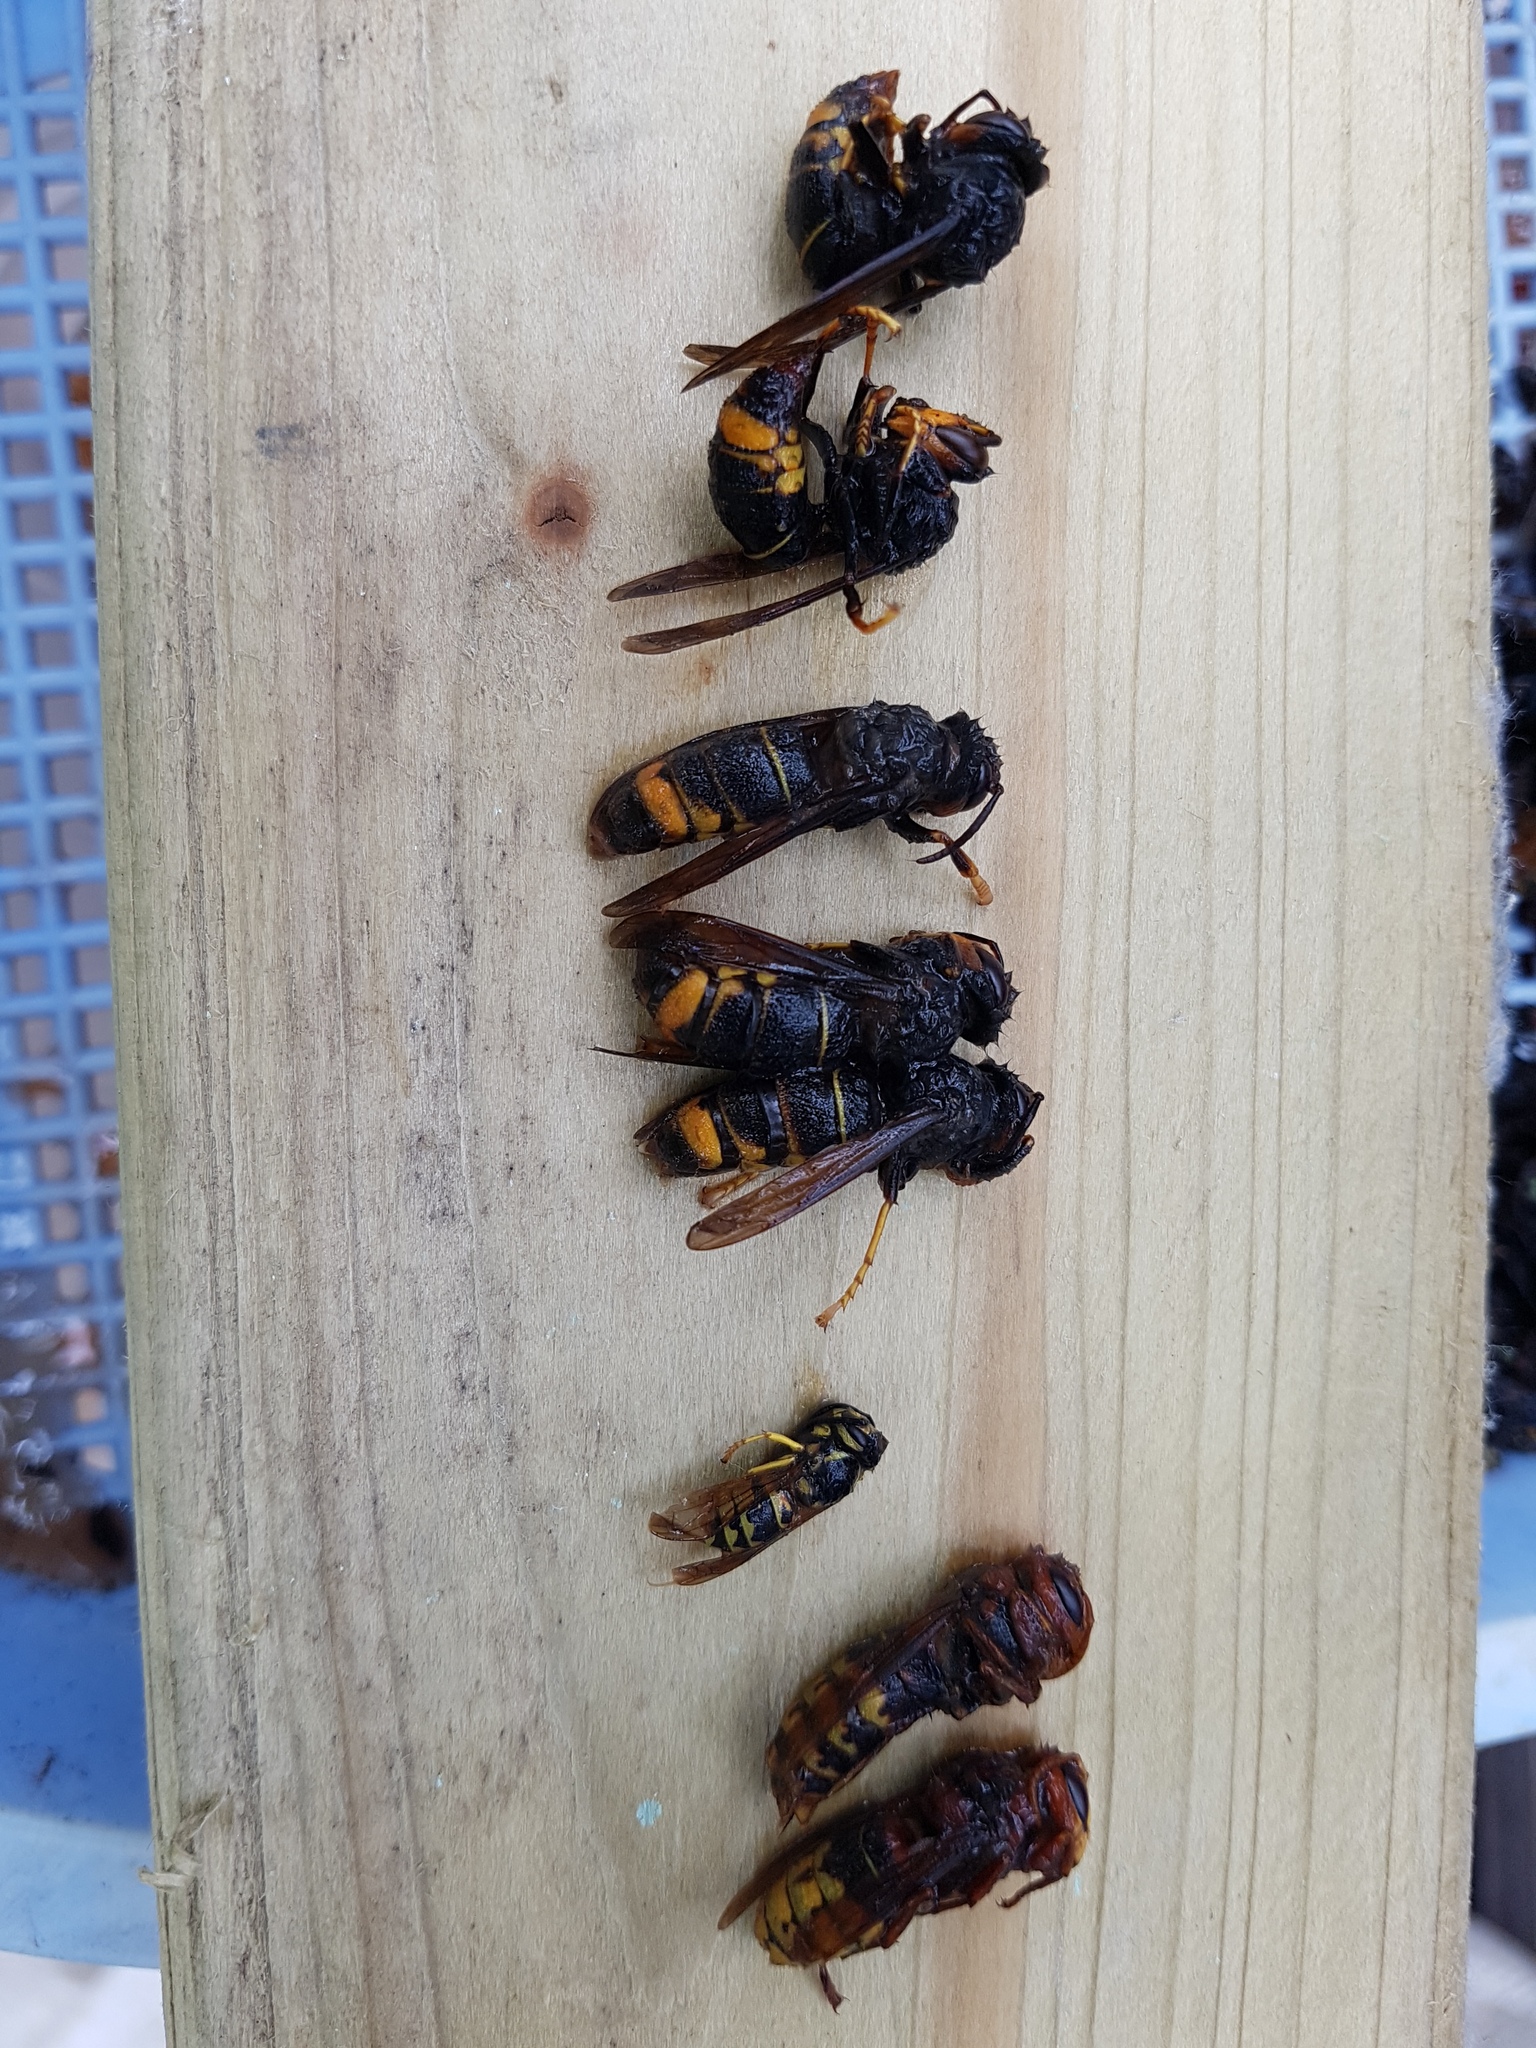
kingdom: Animalia
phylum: Arthropoda
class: Insecta
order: Hymenoptera
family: Vespidae
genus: Vespa
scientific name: Vespa velutina
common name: Asian hornet
